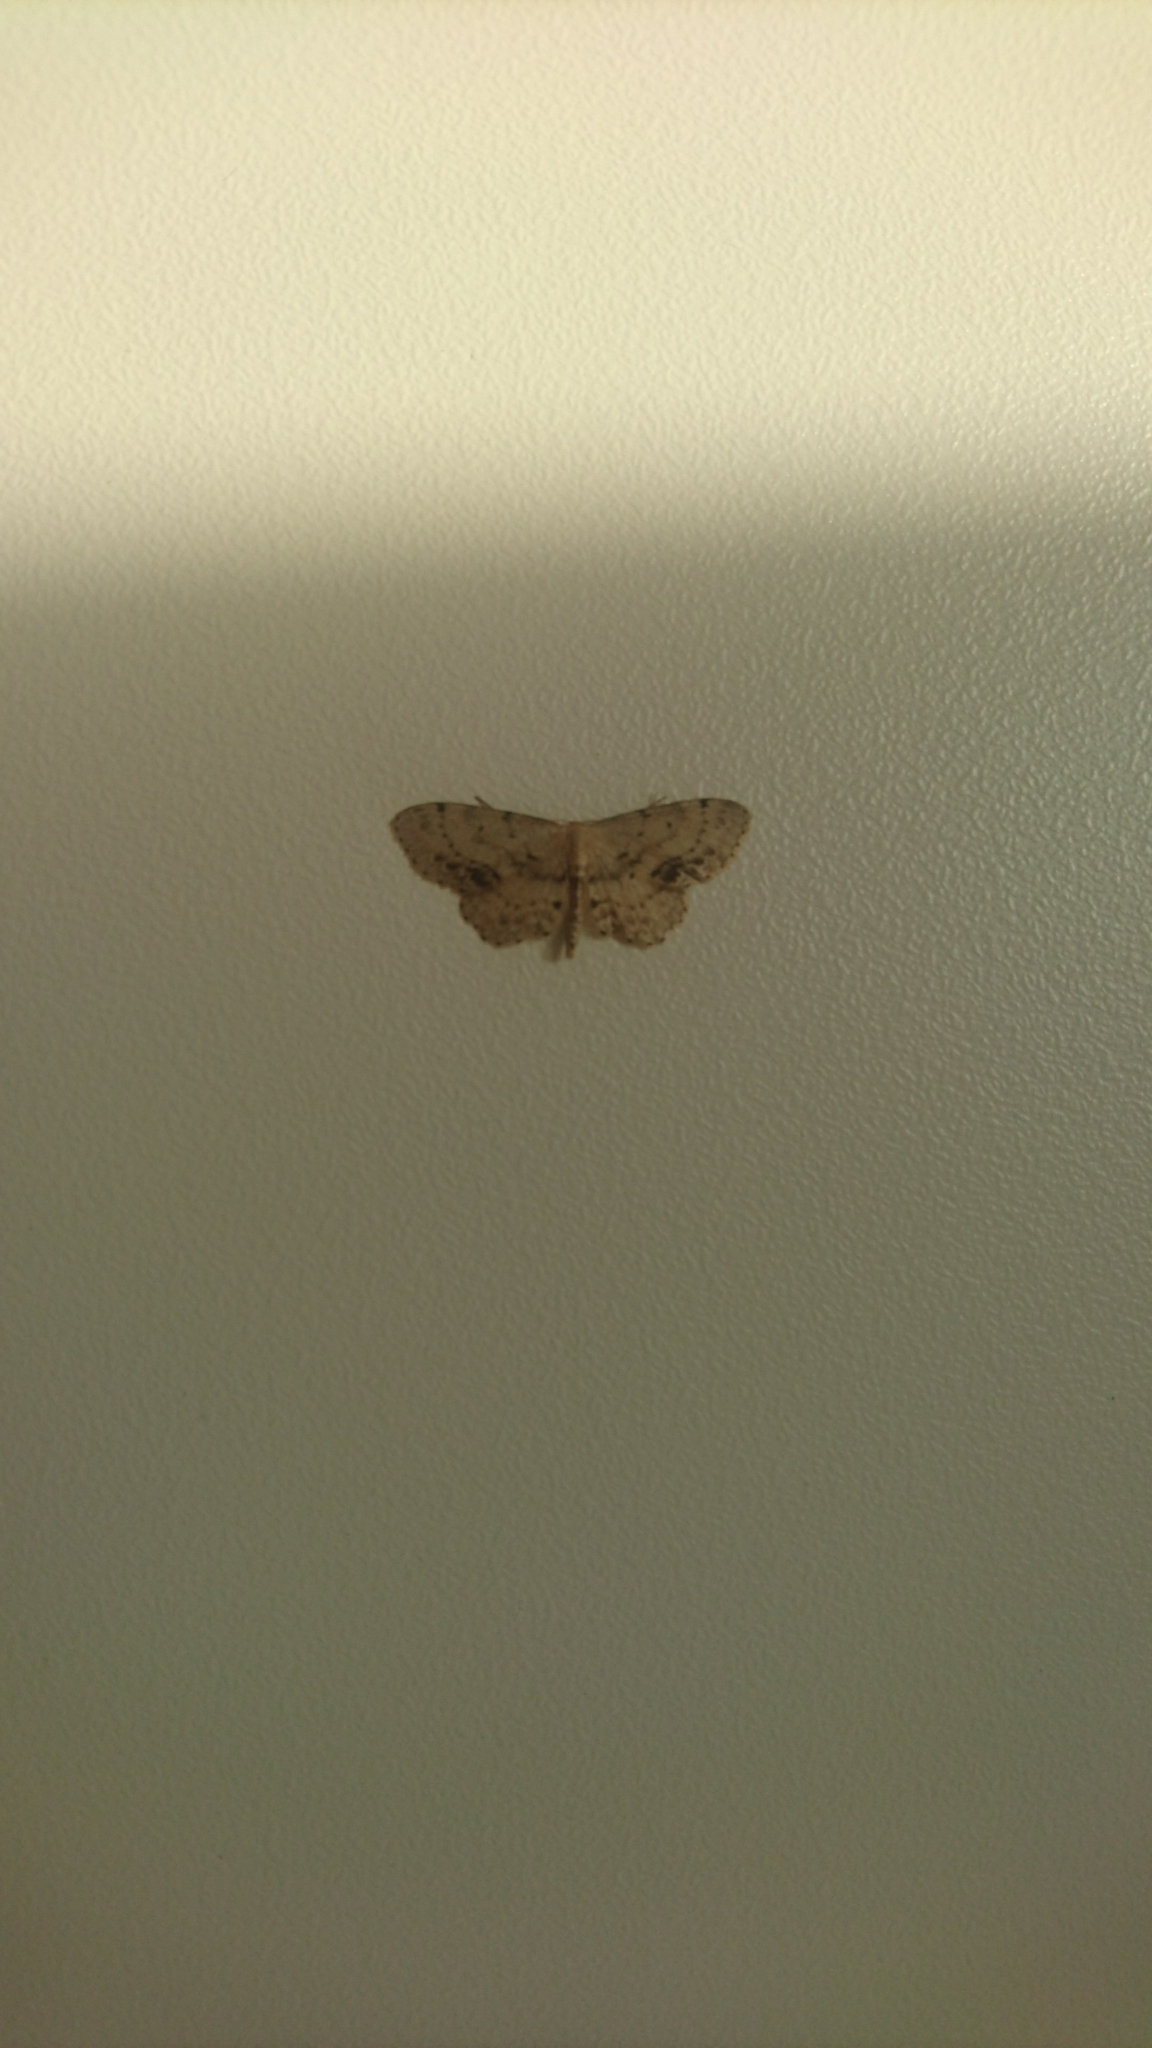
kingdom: Animalia
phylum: Arthropoda
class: Insecta
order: Lepidoptera
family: Geometridae
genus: Idaea
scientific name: Idaea dimidiata
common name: Single-dotted wave
